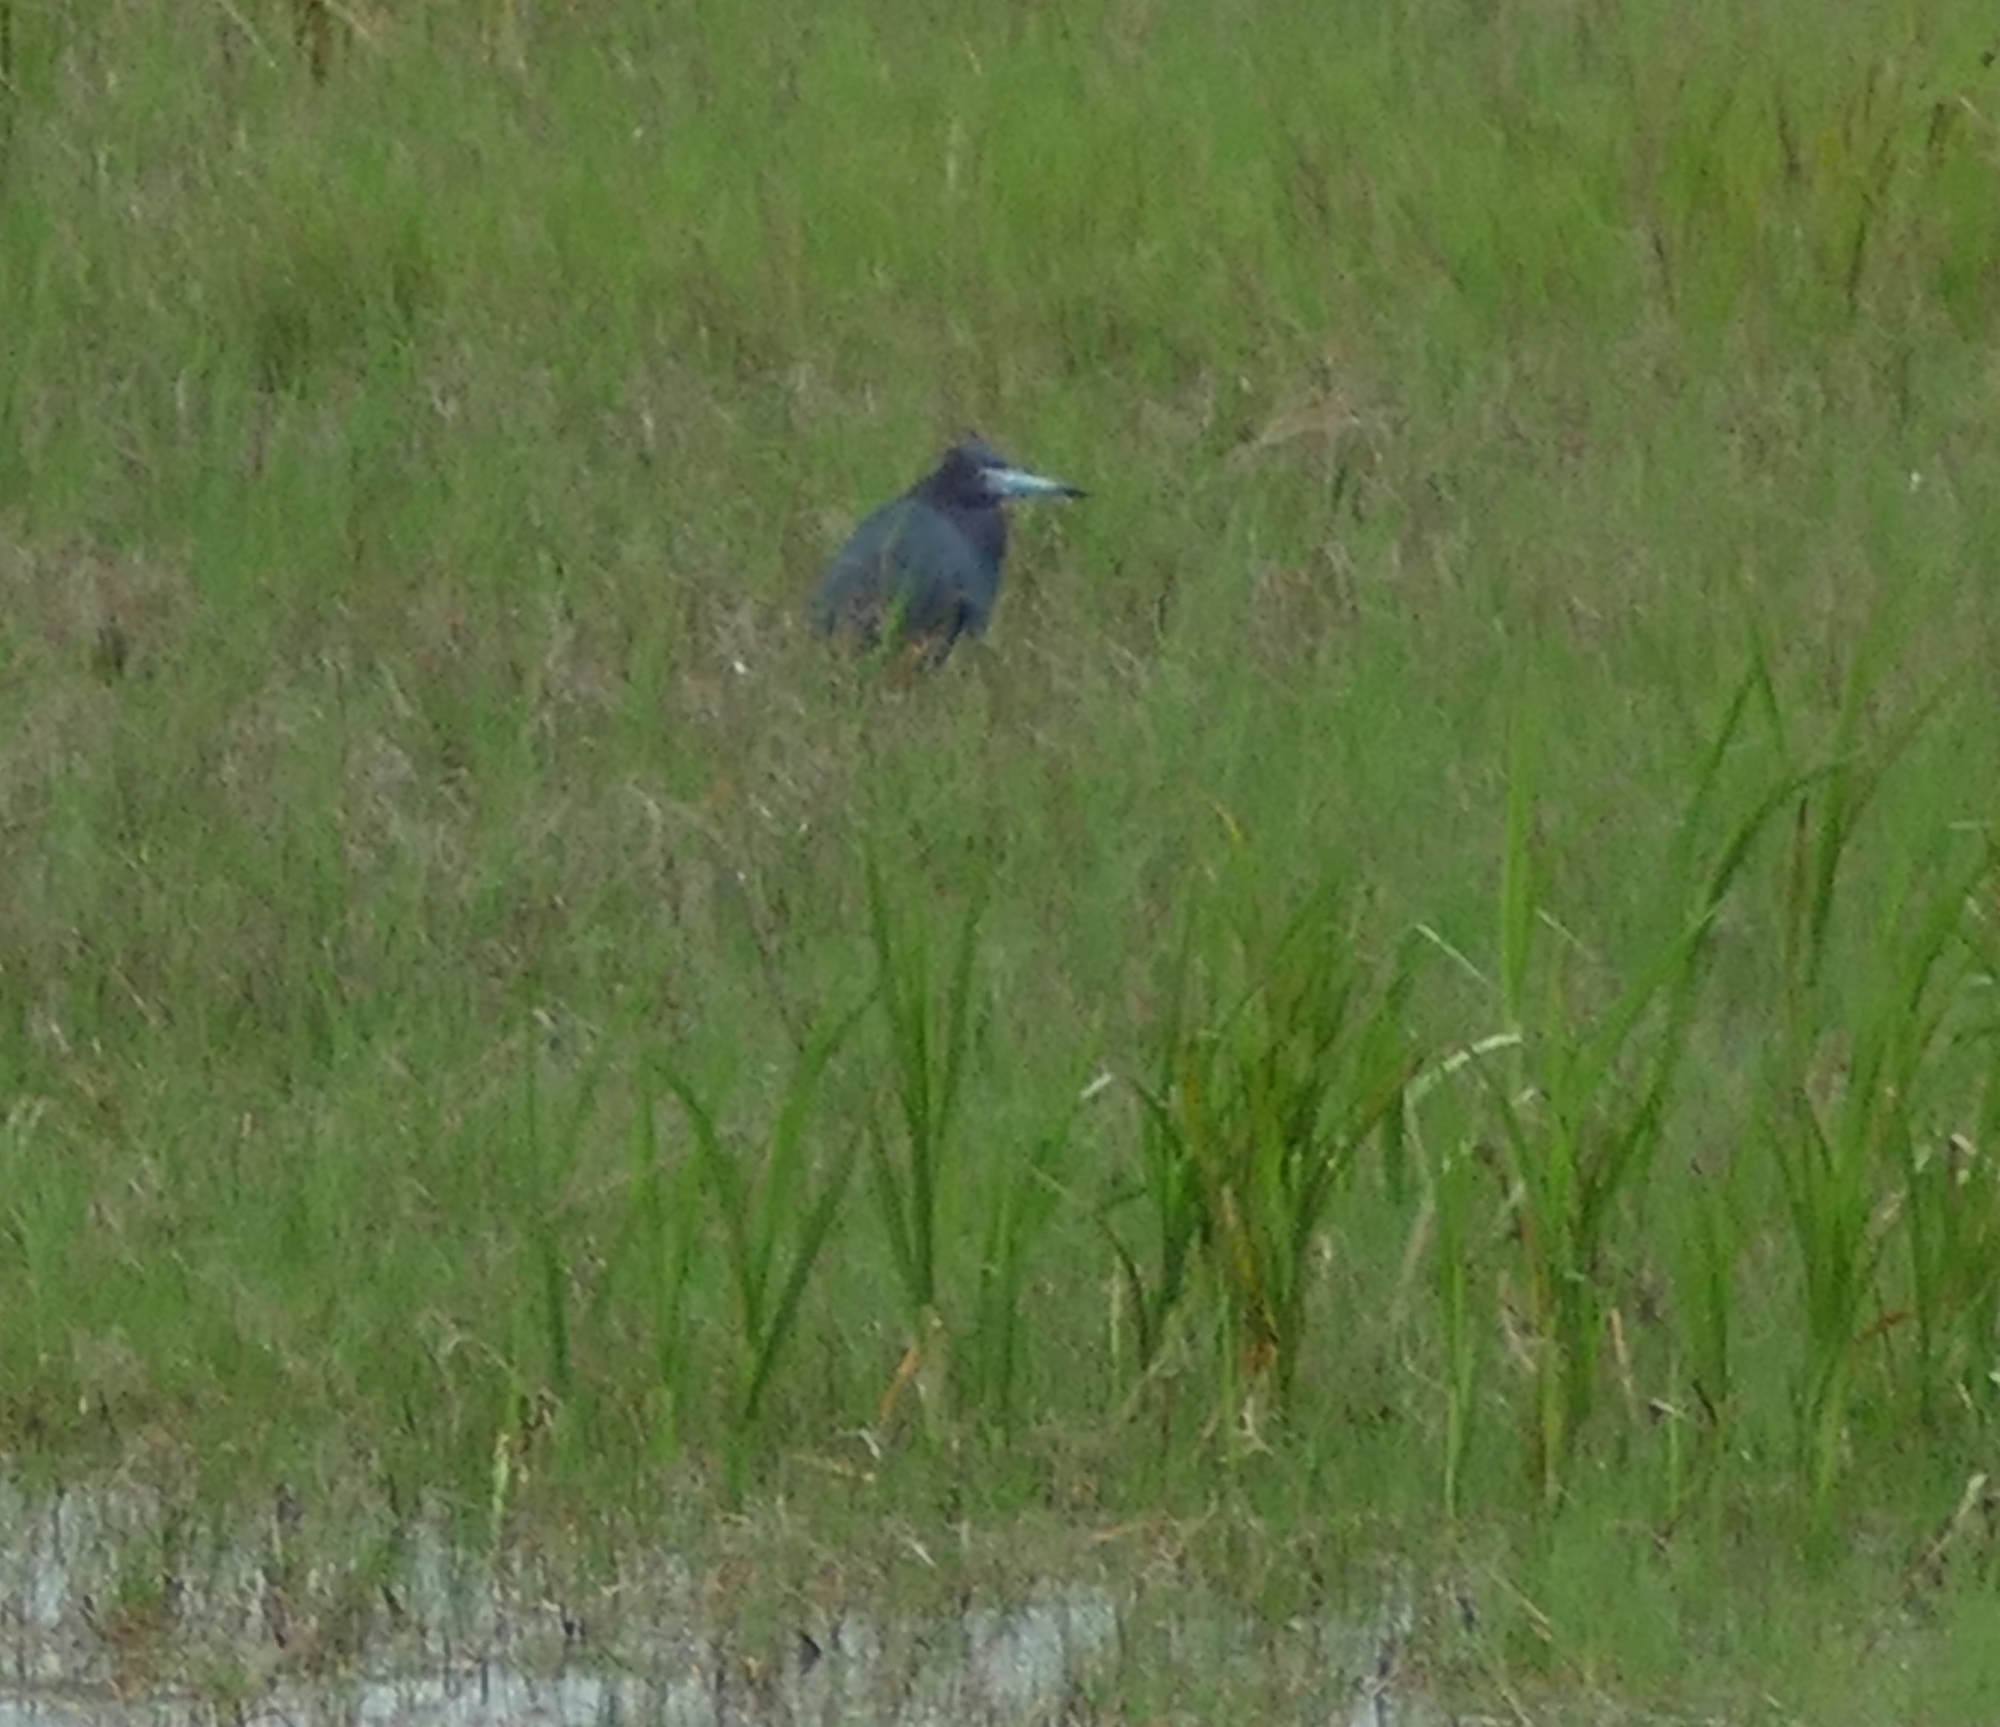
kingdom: Animalia
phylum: Chordata
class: Aves
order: Pelecaniformes
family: Ardeidae
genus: Egretta
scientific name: Egretta caerulea
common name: Little blue heron
